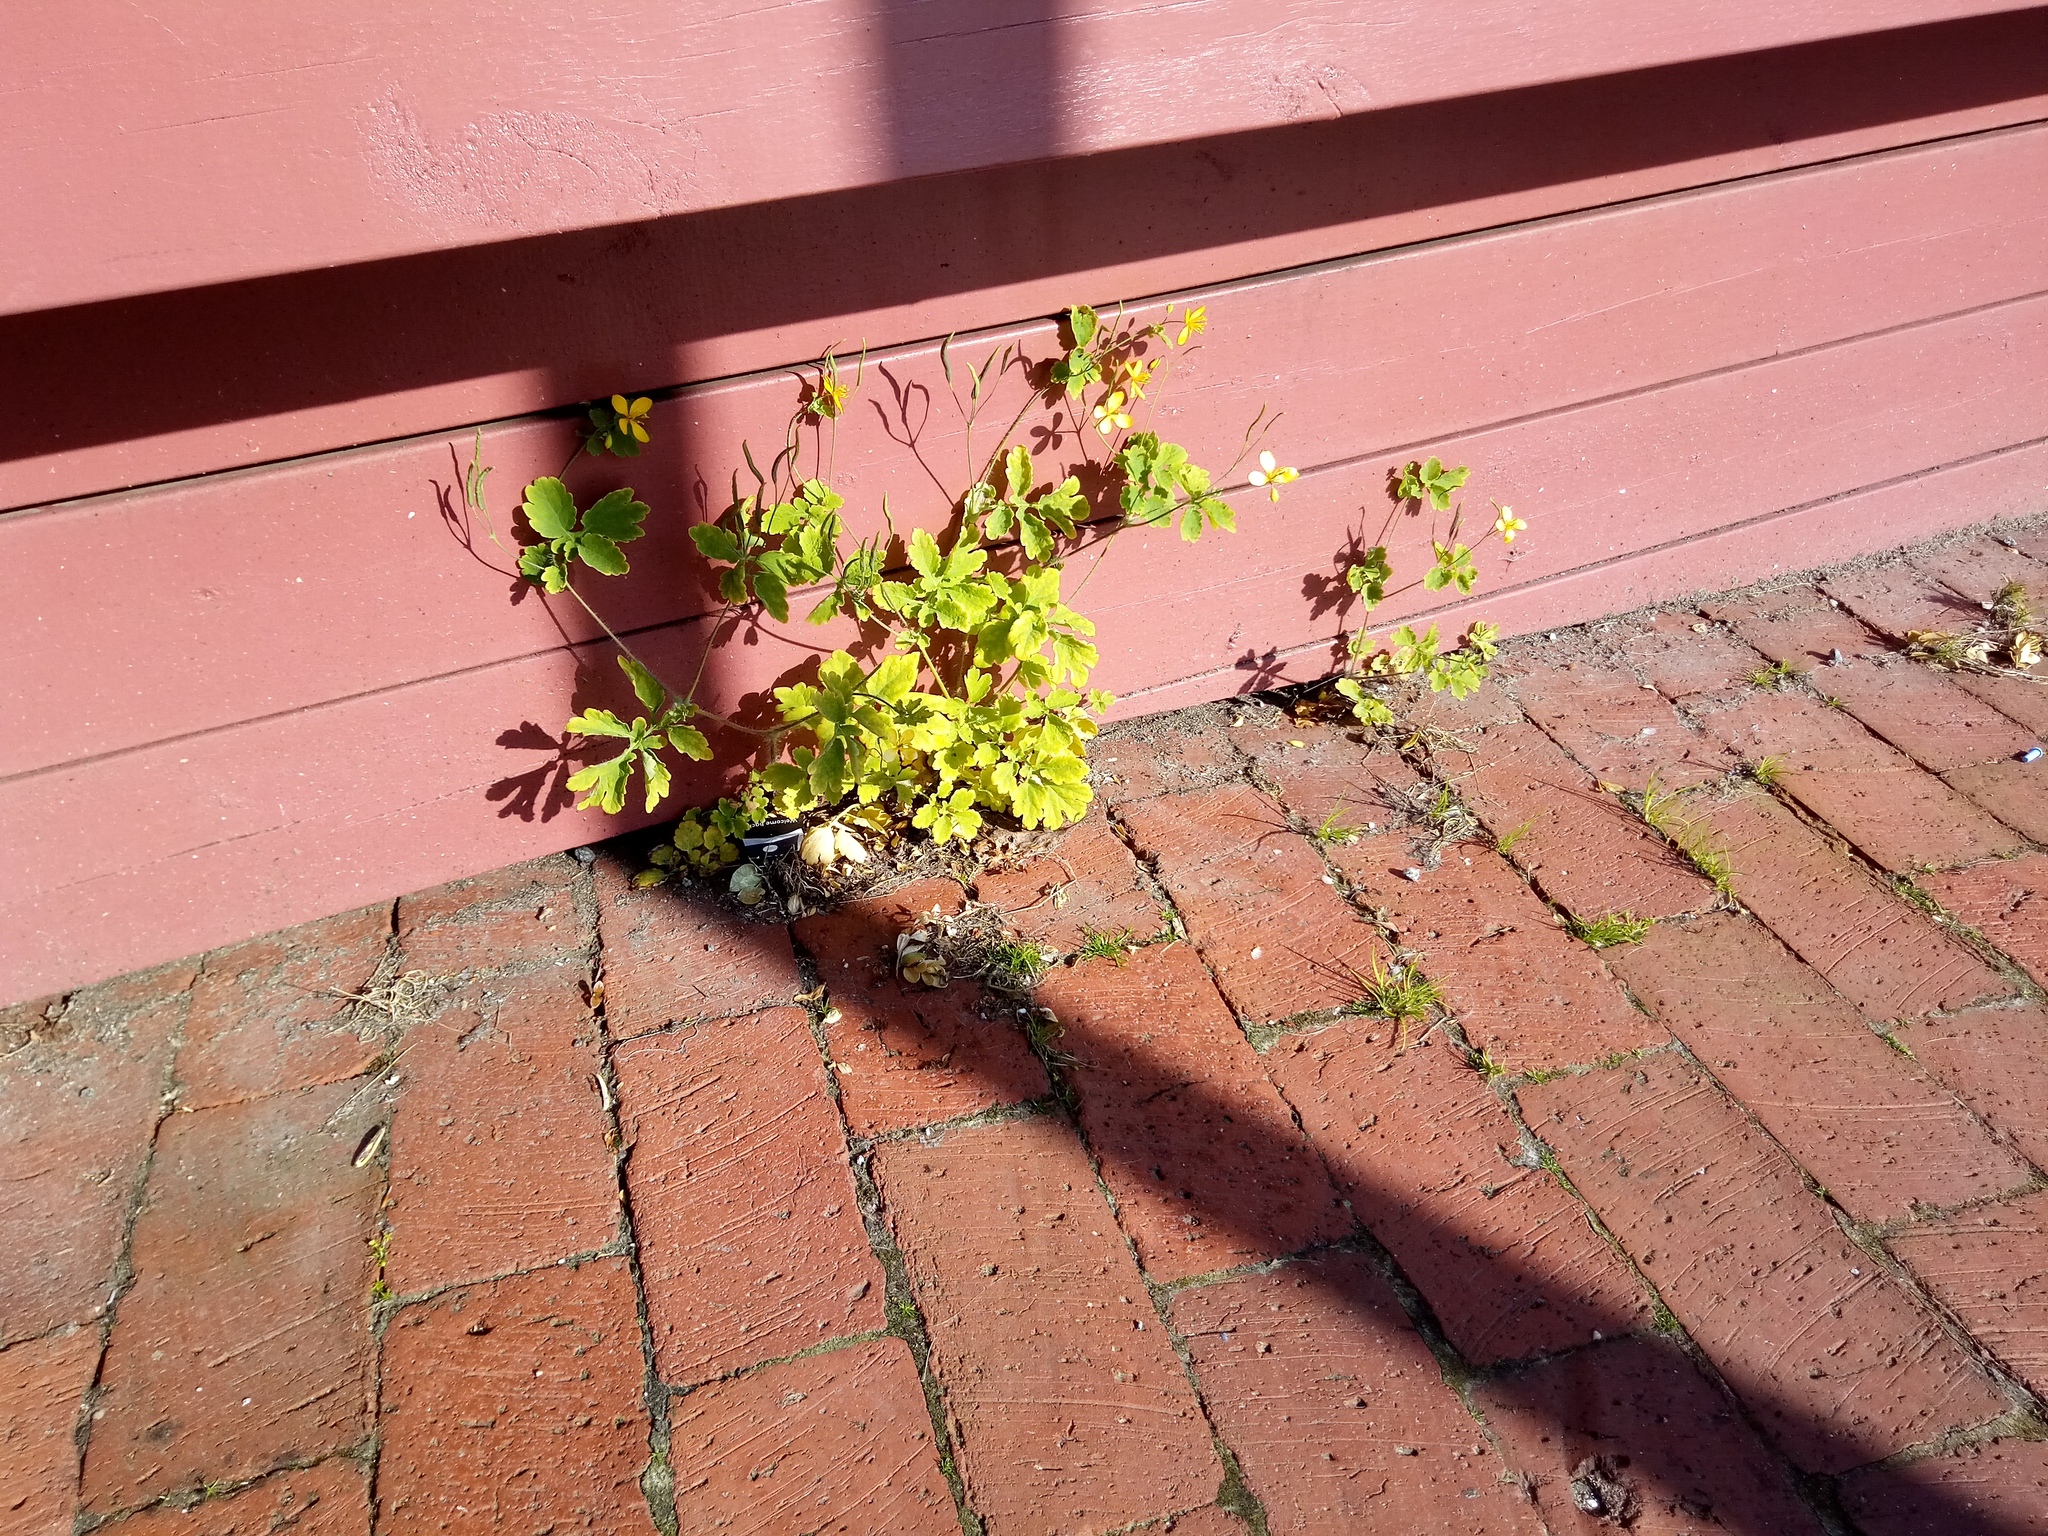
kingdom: Plantae
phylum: Tracheophyta
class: Magnoliopsida
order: Ranunculales
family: Papaveraceae
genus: Chelidonium
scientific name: Chelidonium majus
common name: Greater celandine
